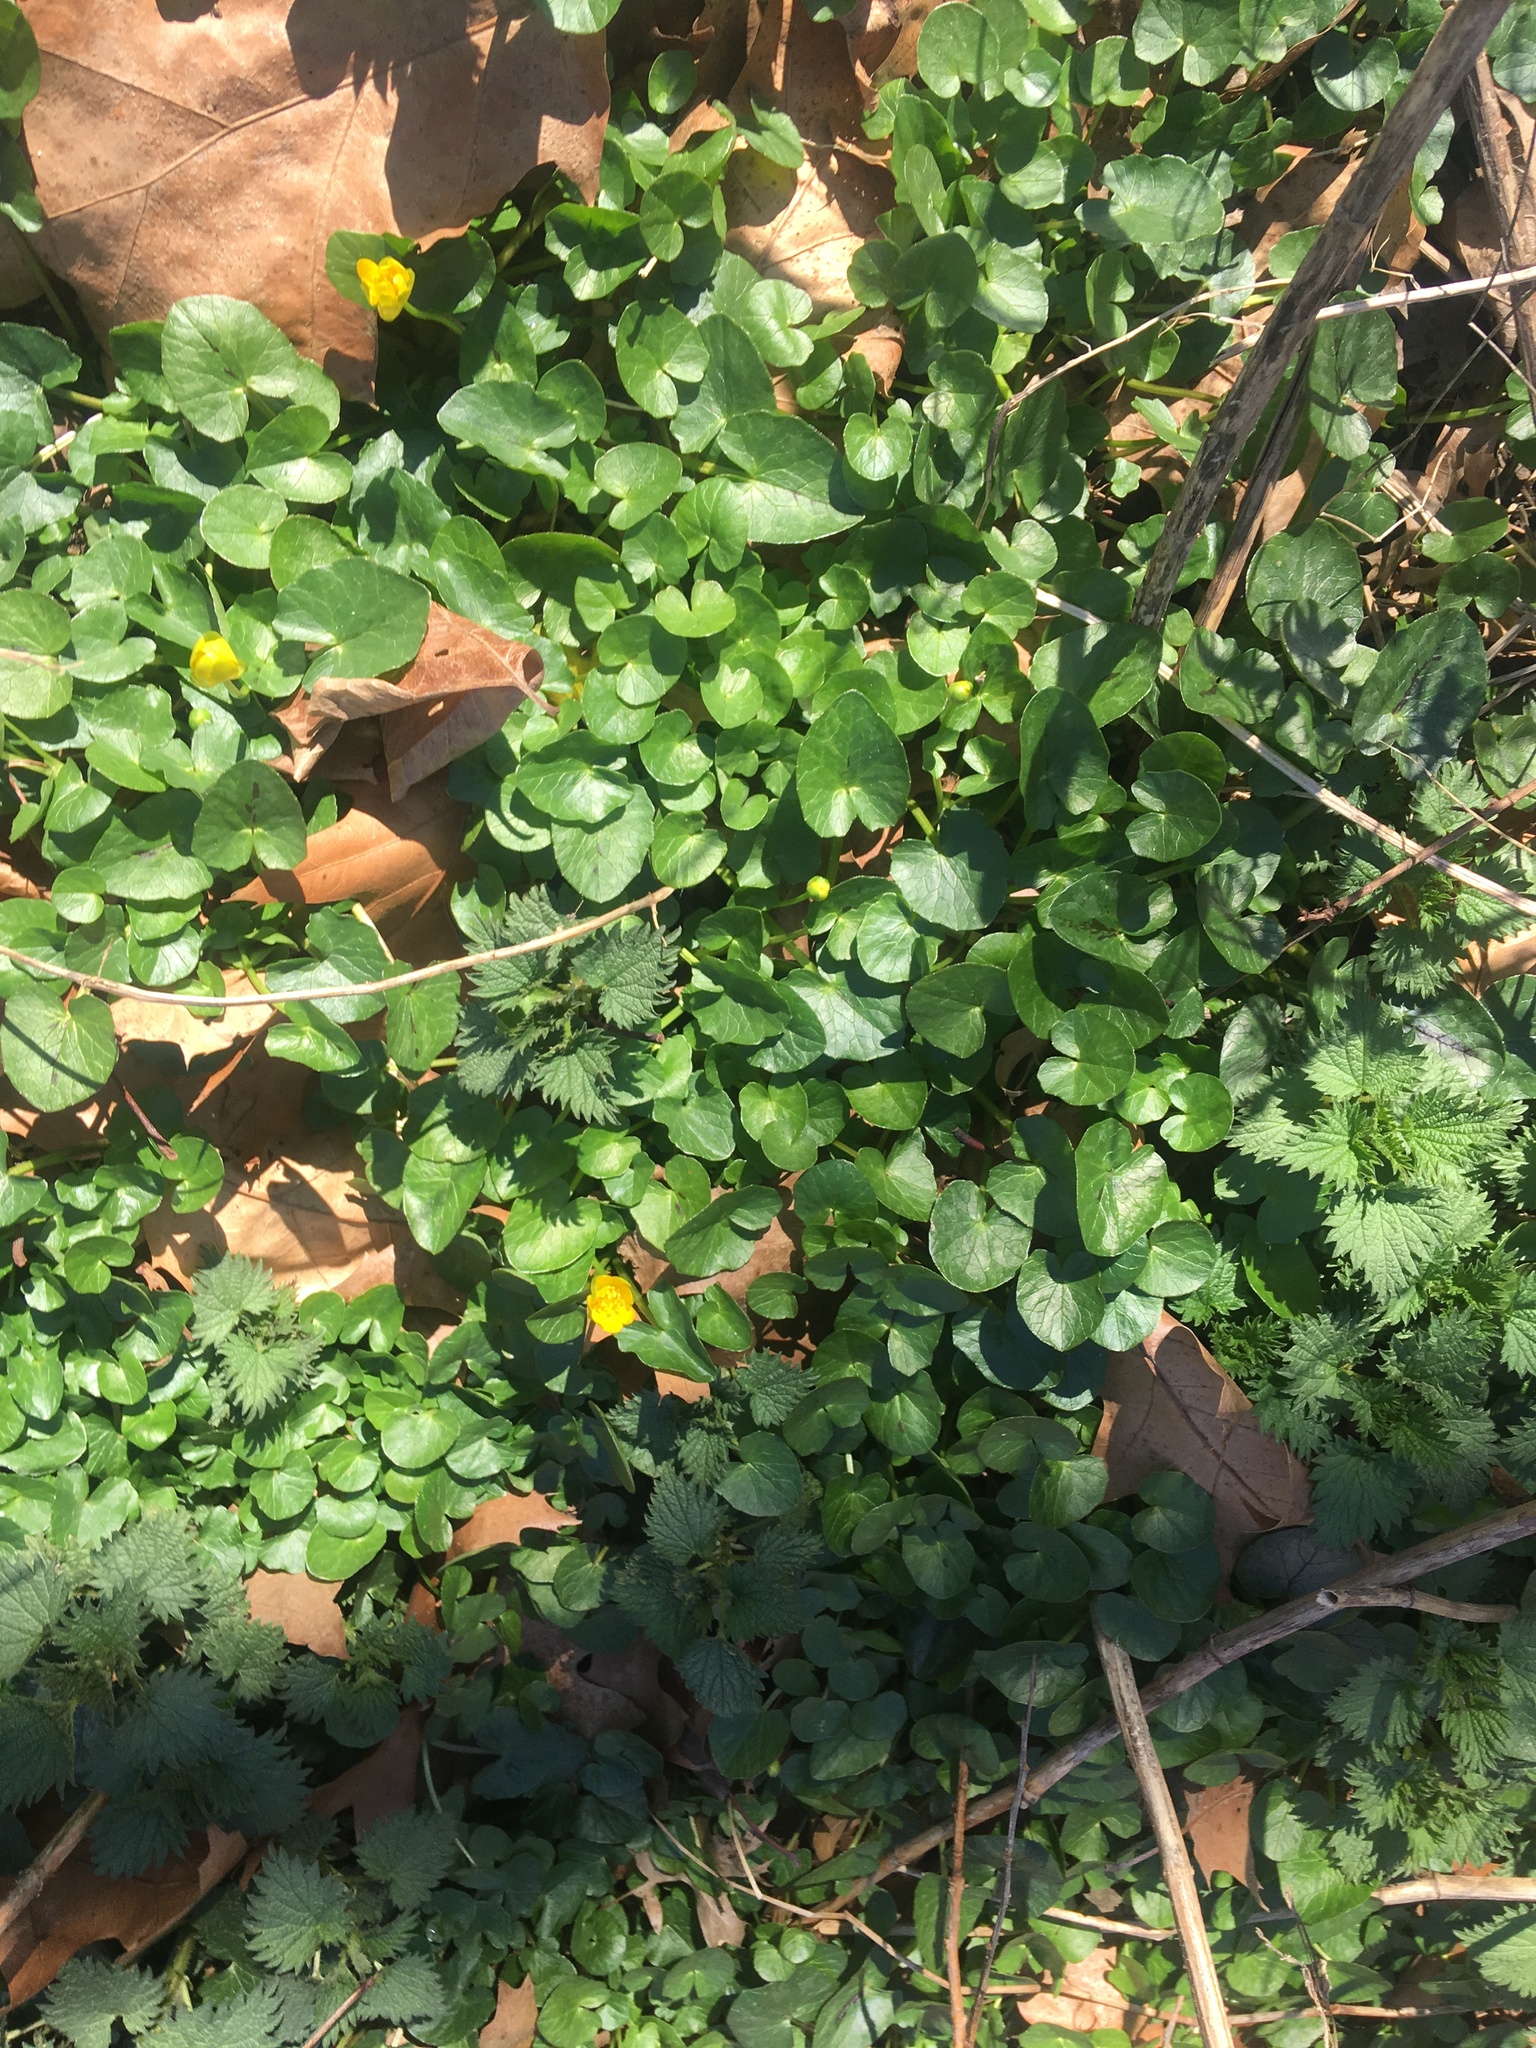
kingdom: Plantae
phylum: Tracheophyta
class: Magnoliopsida
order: Ranunculales
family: Ranunculaceae
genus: Ficaria
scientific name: Ficaria verna
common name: Lesser celandine
